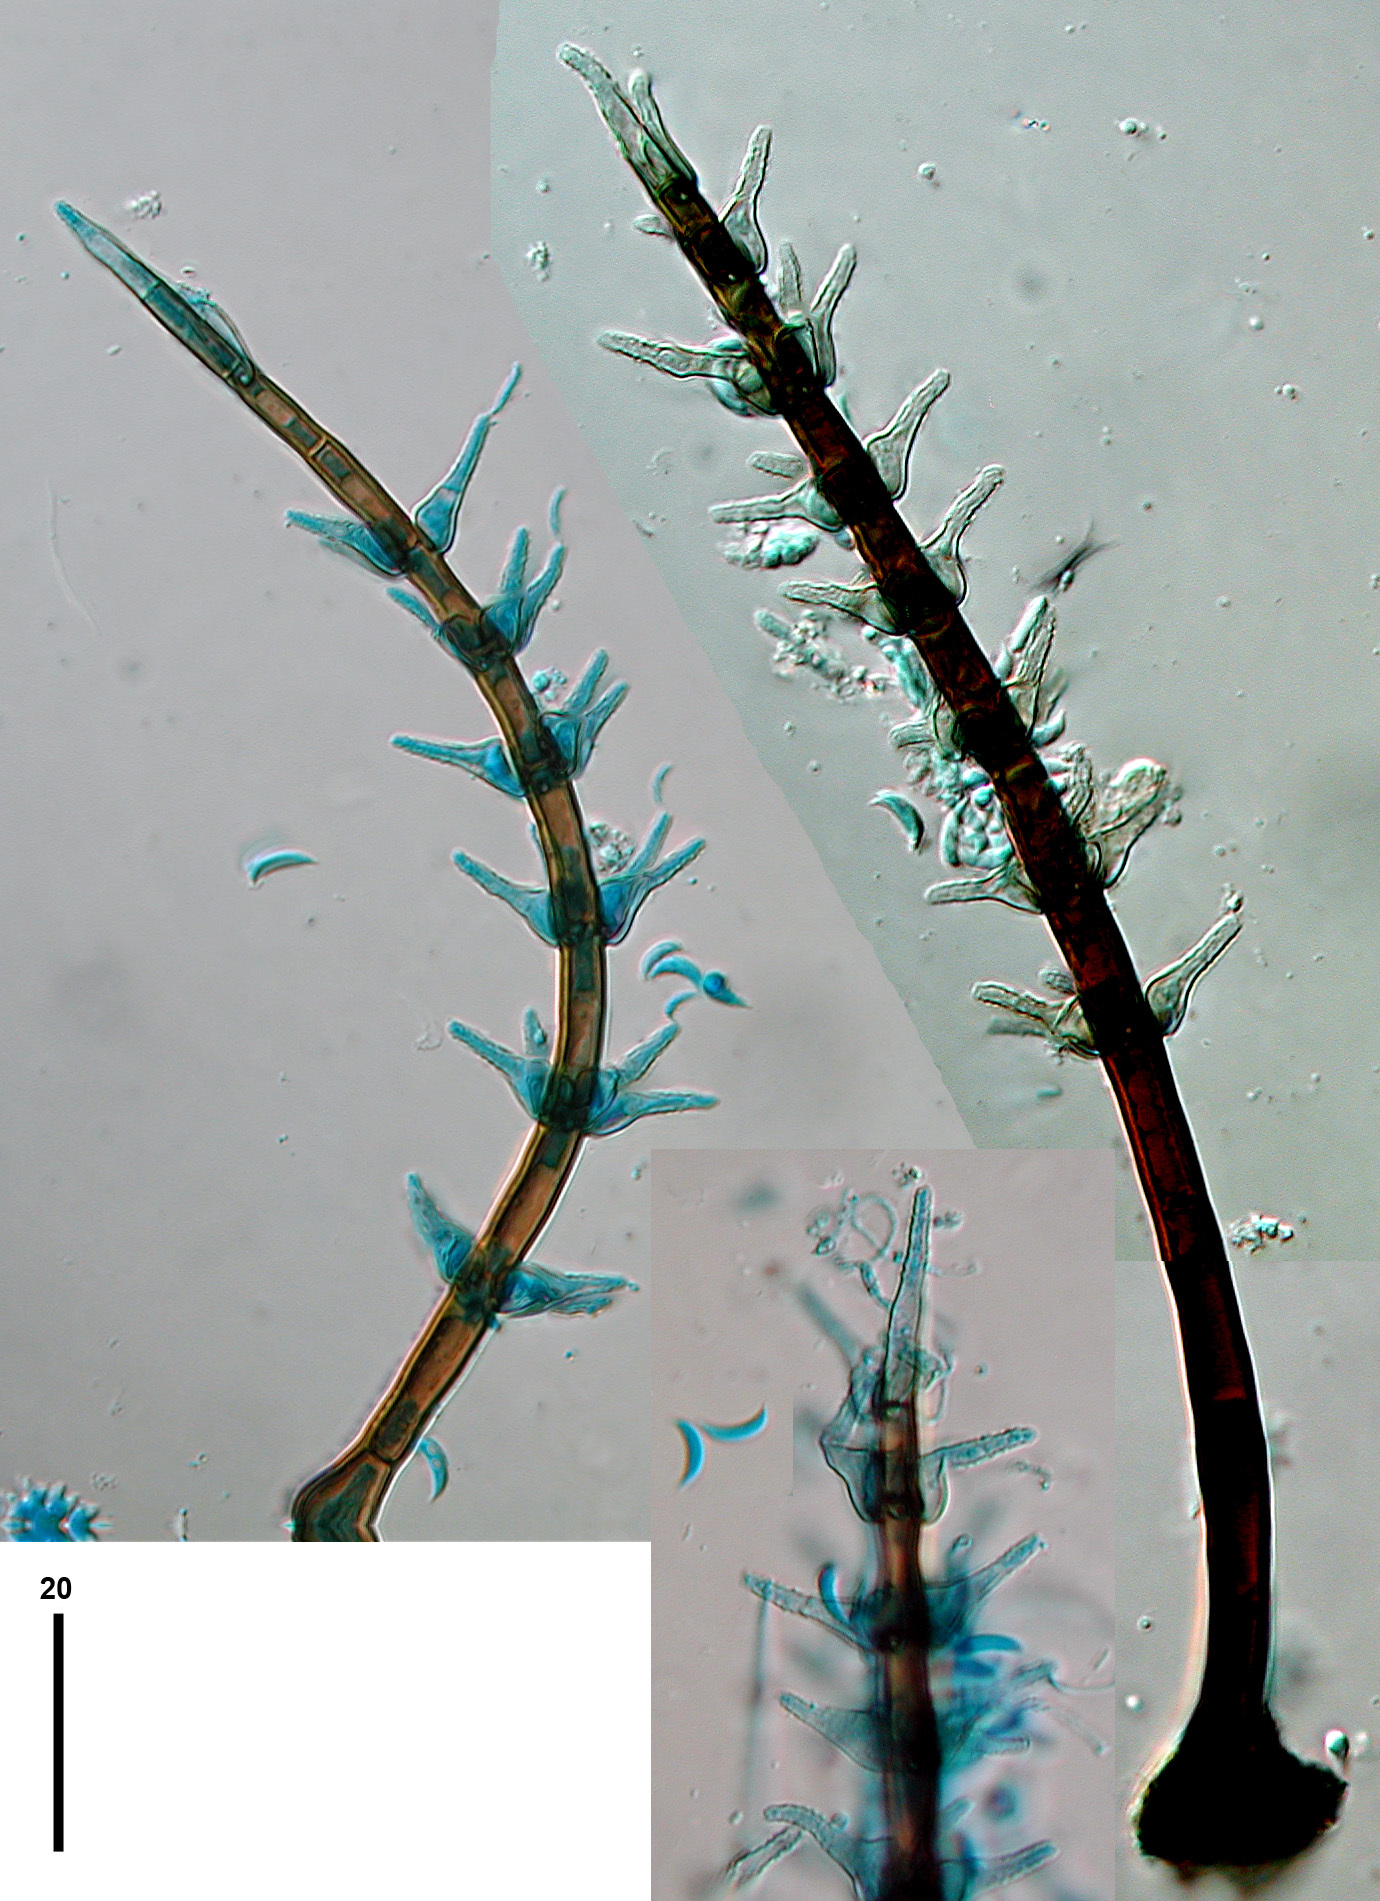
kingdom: Fungi
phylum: Ascomycota
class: Sordariomycetes
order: Xylariales
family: Xyladictyochaetaceae
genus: Brachiampulla
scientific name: Brachiampulla verticillata
